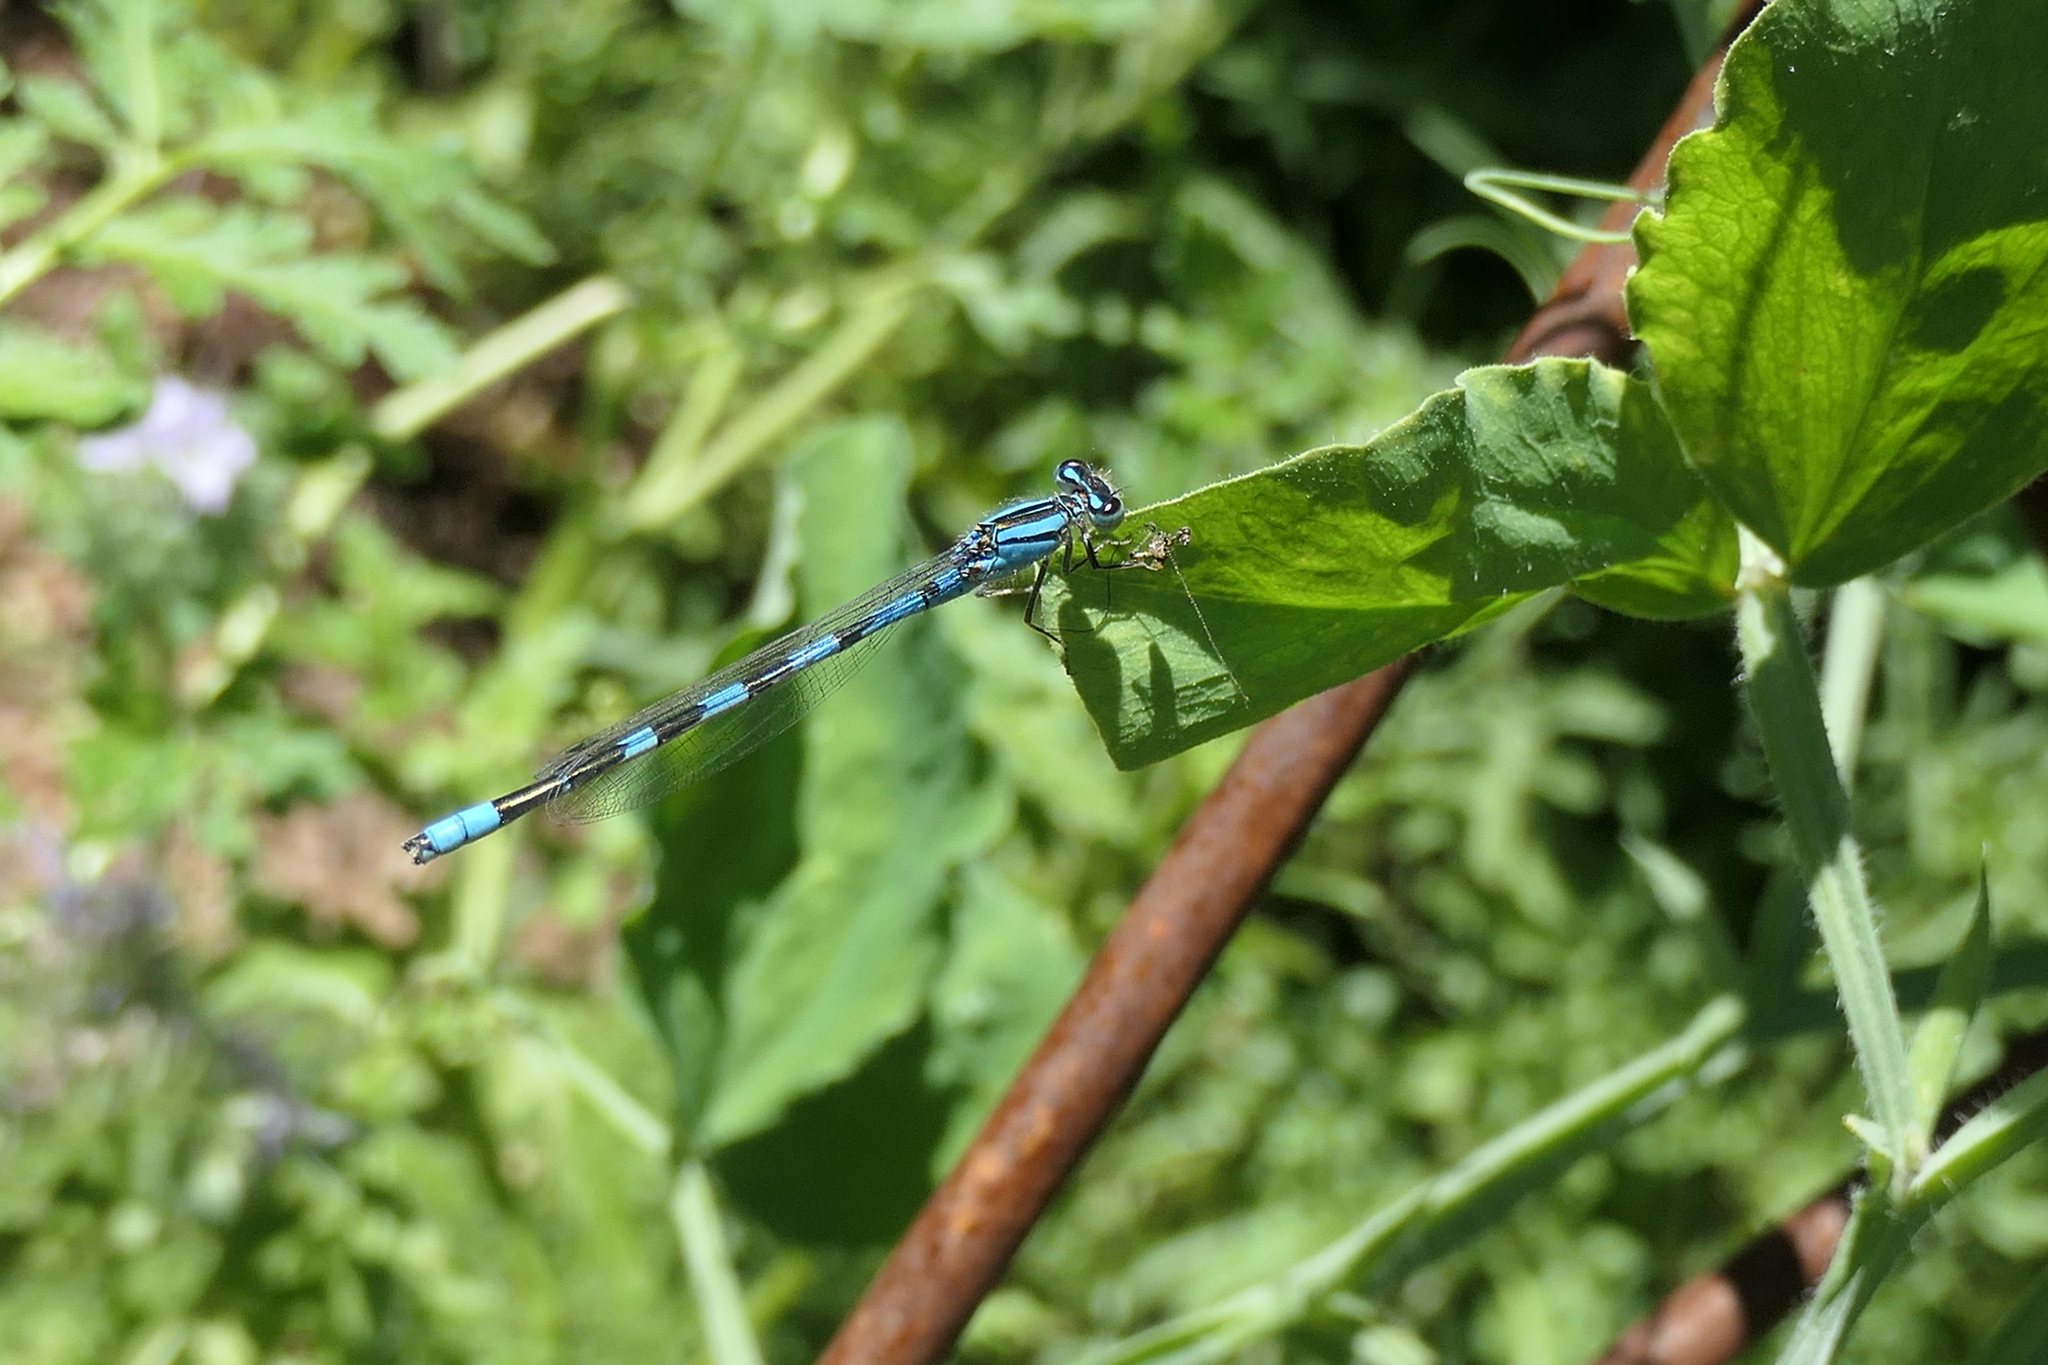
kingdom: Animalia
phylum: Arthropoda
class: Insecta
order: Odonata
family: Coenagrionidae
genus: Enallagma
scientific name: Enallagma carunculatum
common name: Tule bluet
